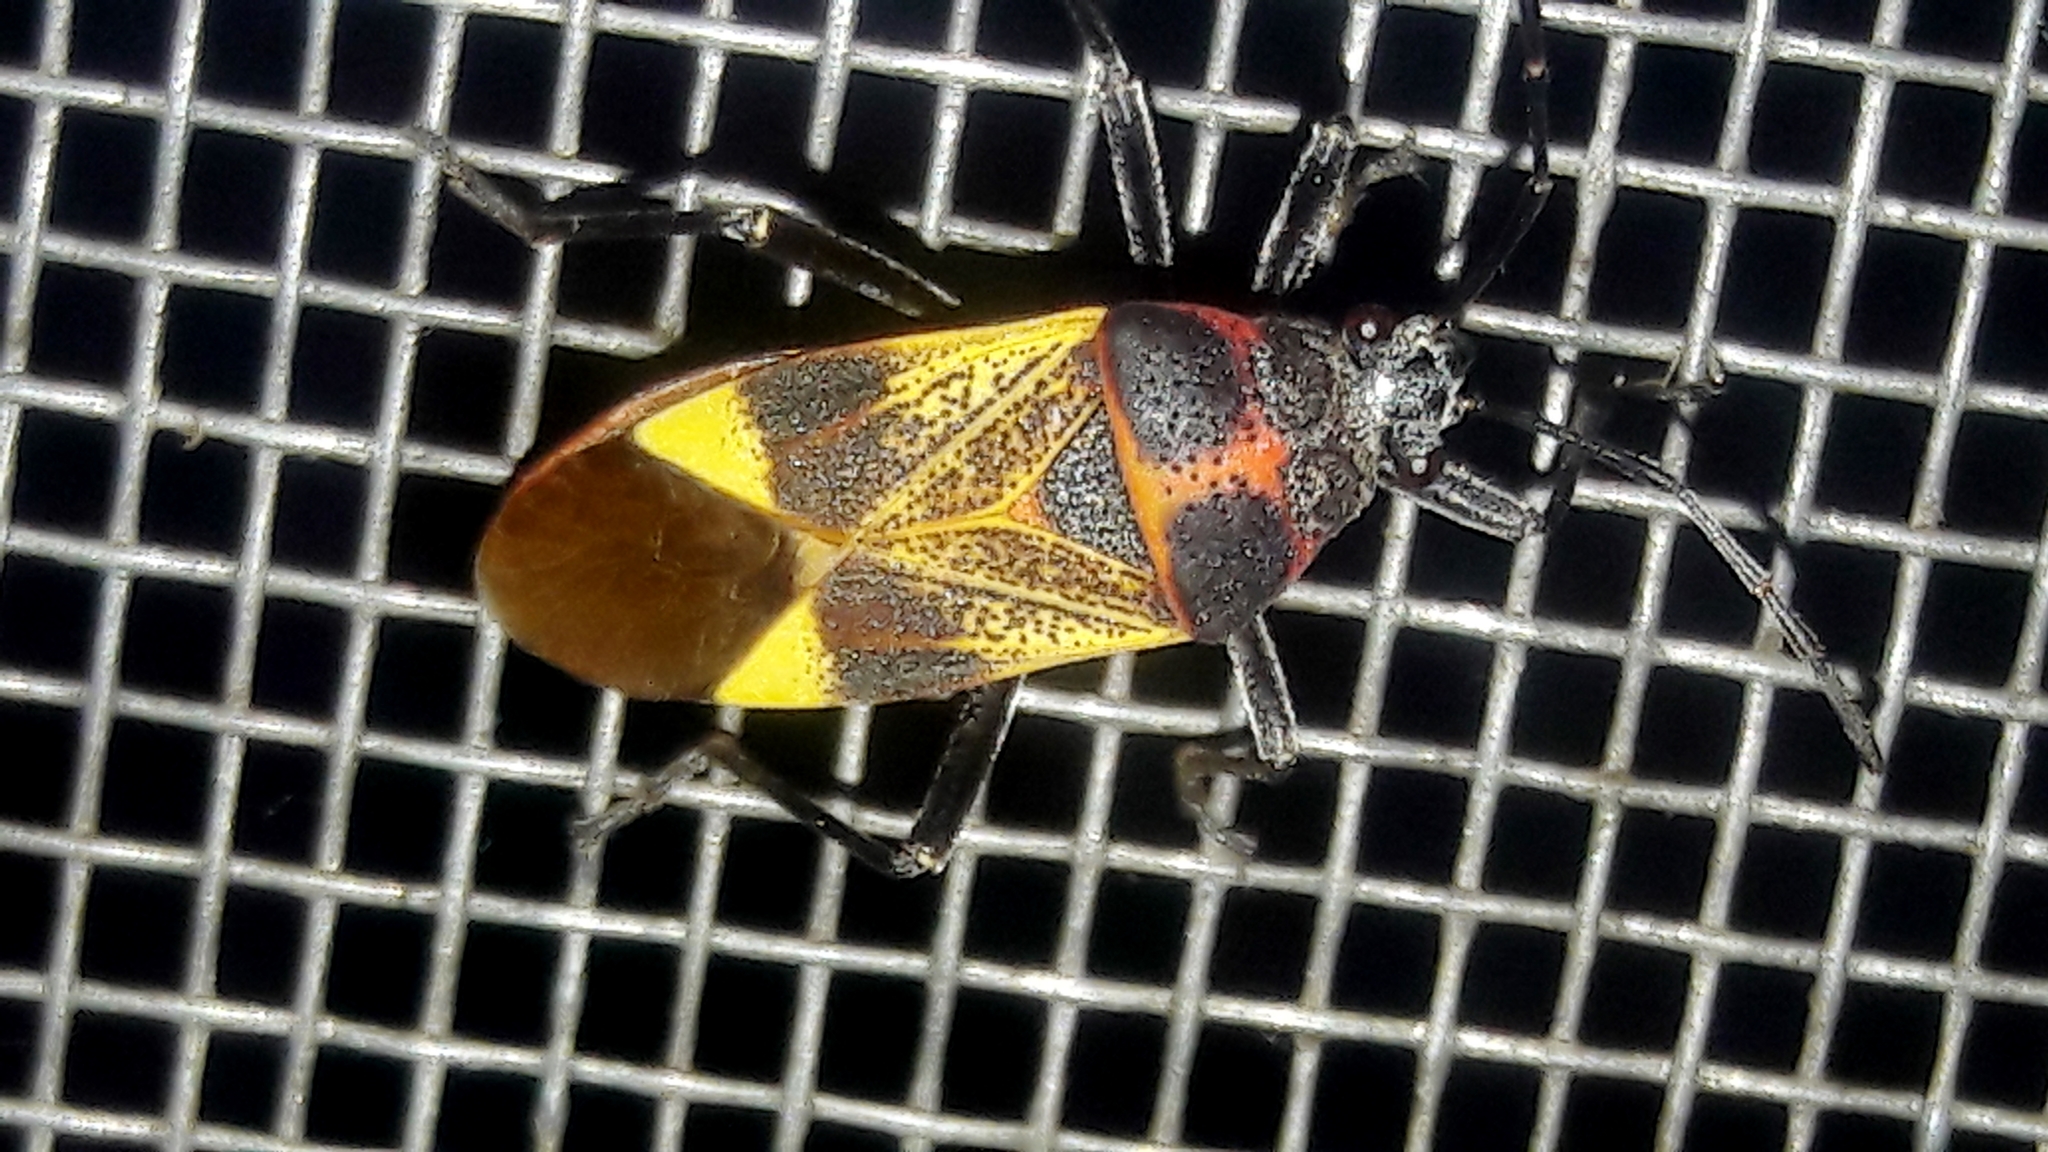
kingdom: Animalia
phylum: Arthropoda
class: Insecta
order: Hemiptera
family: Largidae
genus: Largus
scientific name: Largus ceblini
